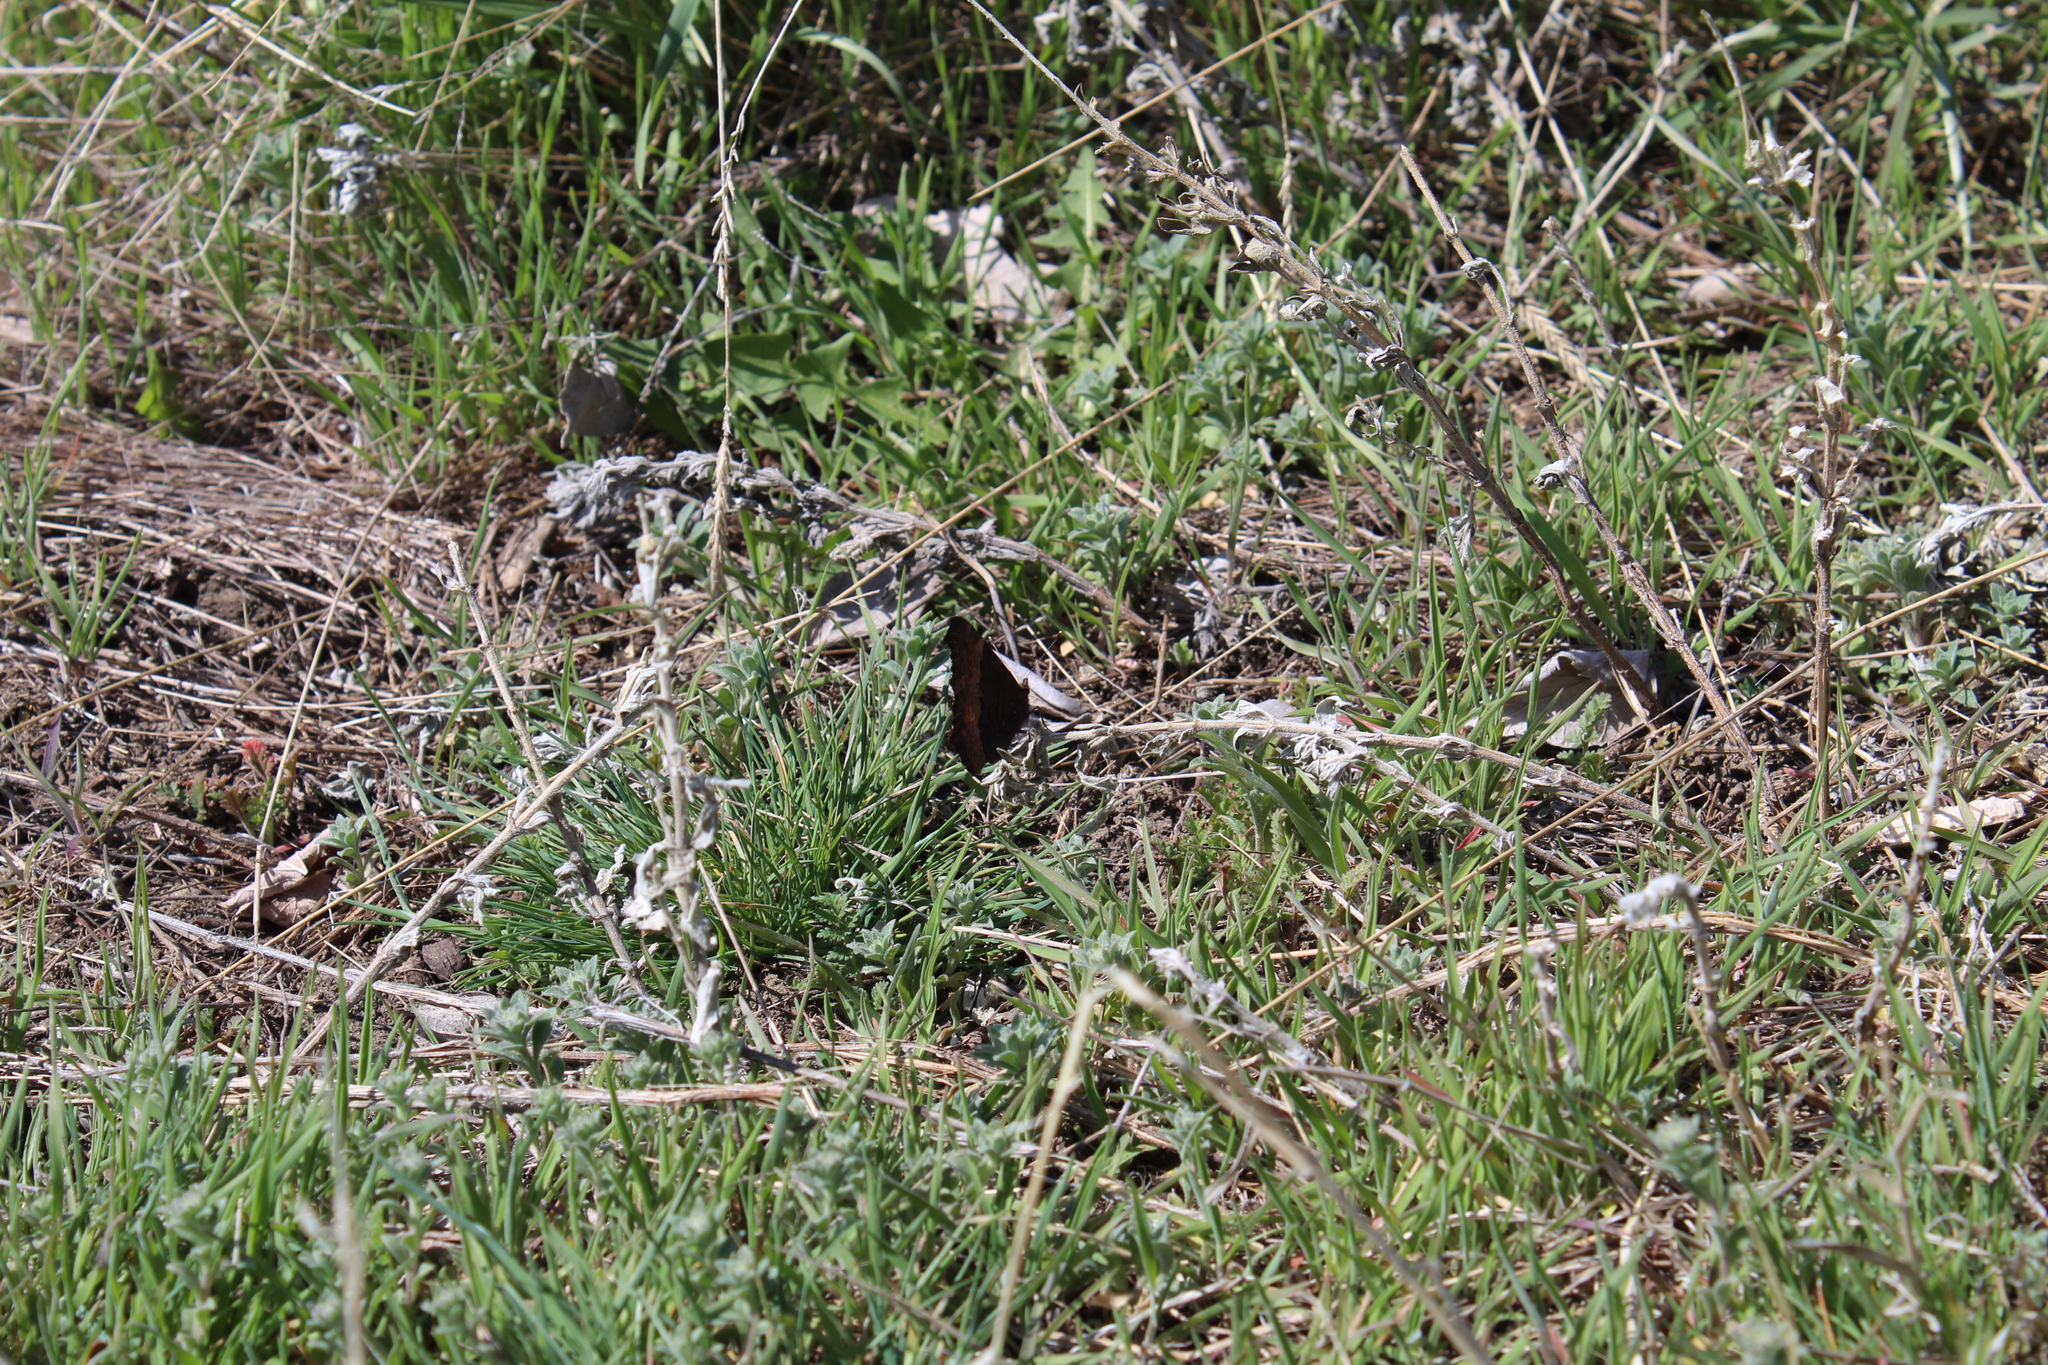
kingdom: Animalia
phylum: Arthropoda
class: Insecta
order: Lepidoptera
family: Nymphalidae
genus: Aglais
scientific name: Aglais milberti
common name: Milbert's tortoiseshell
